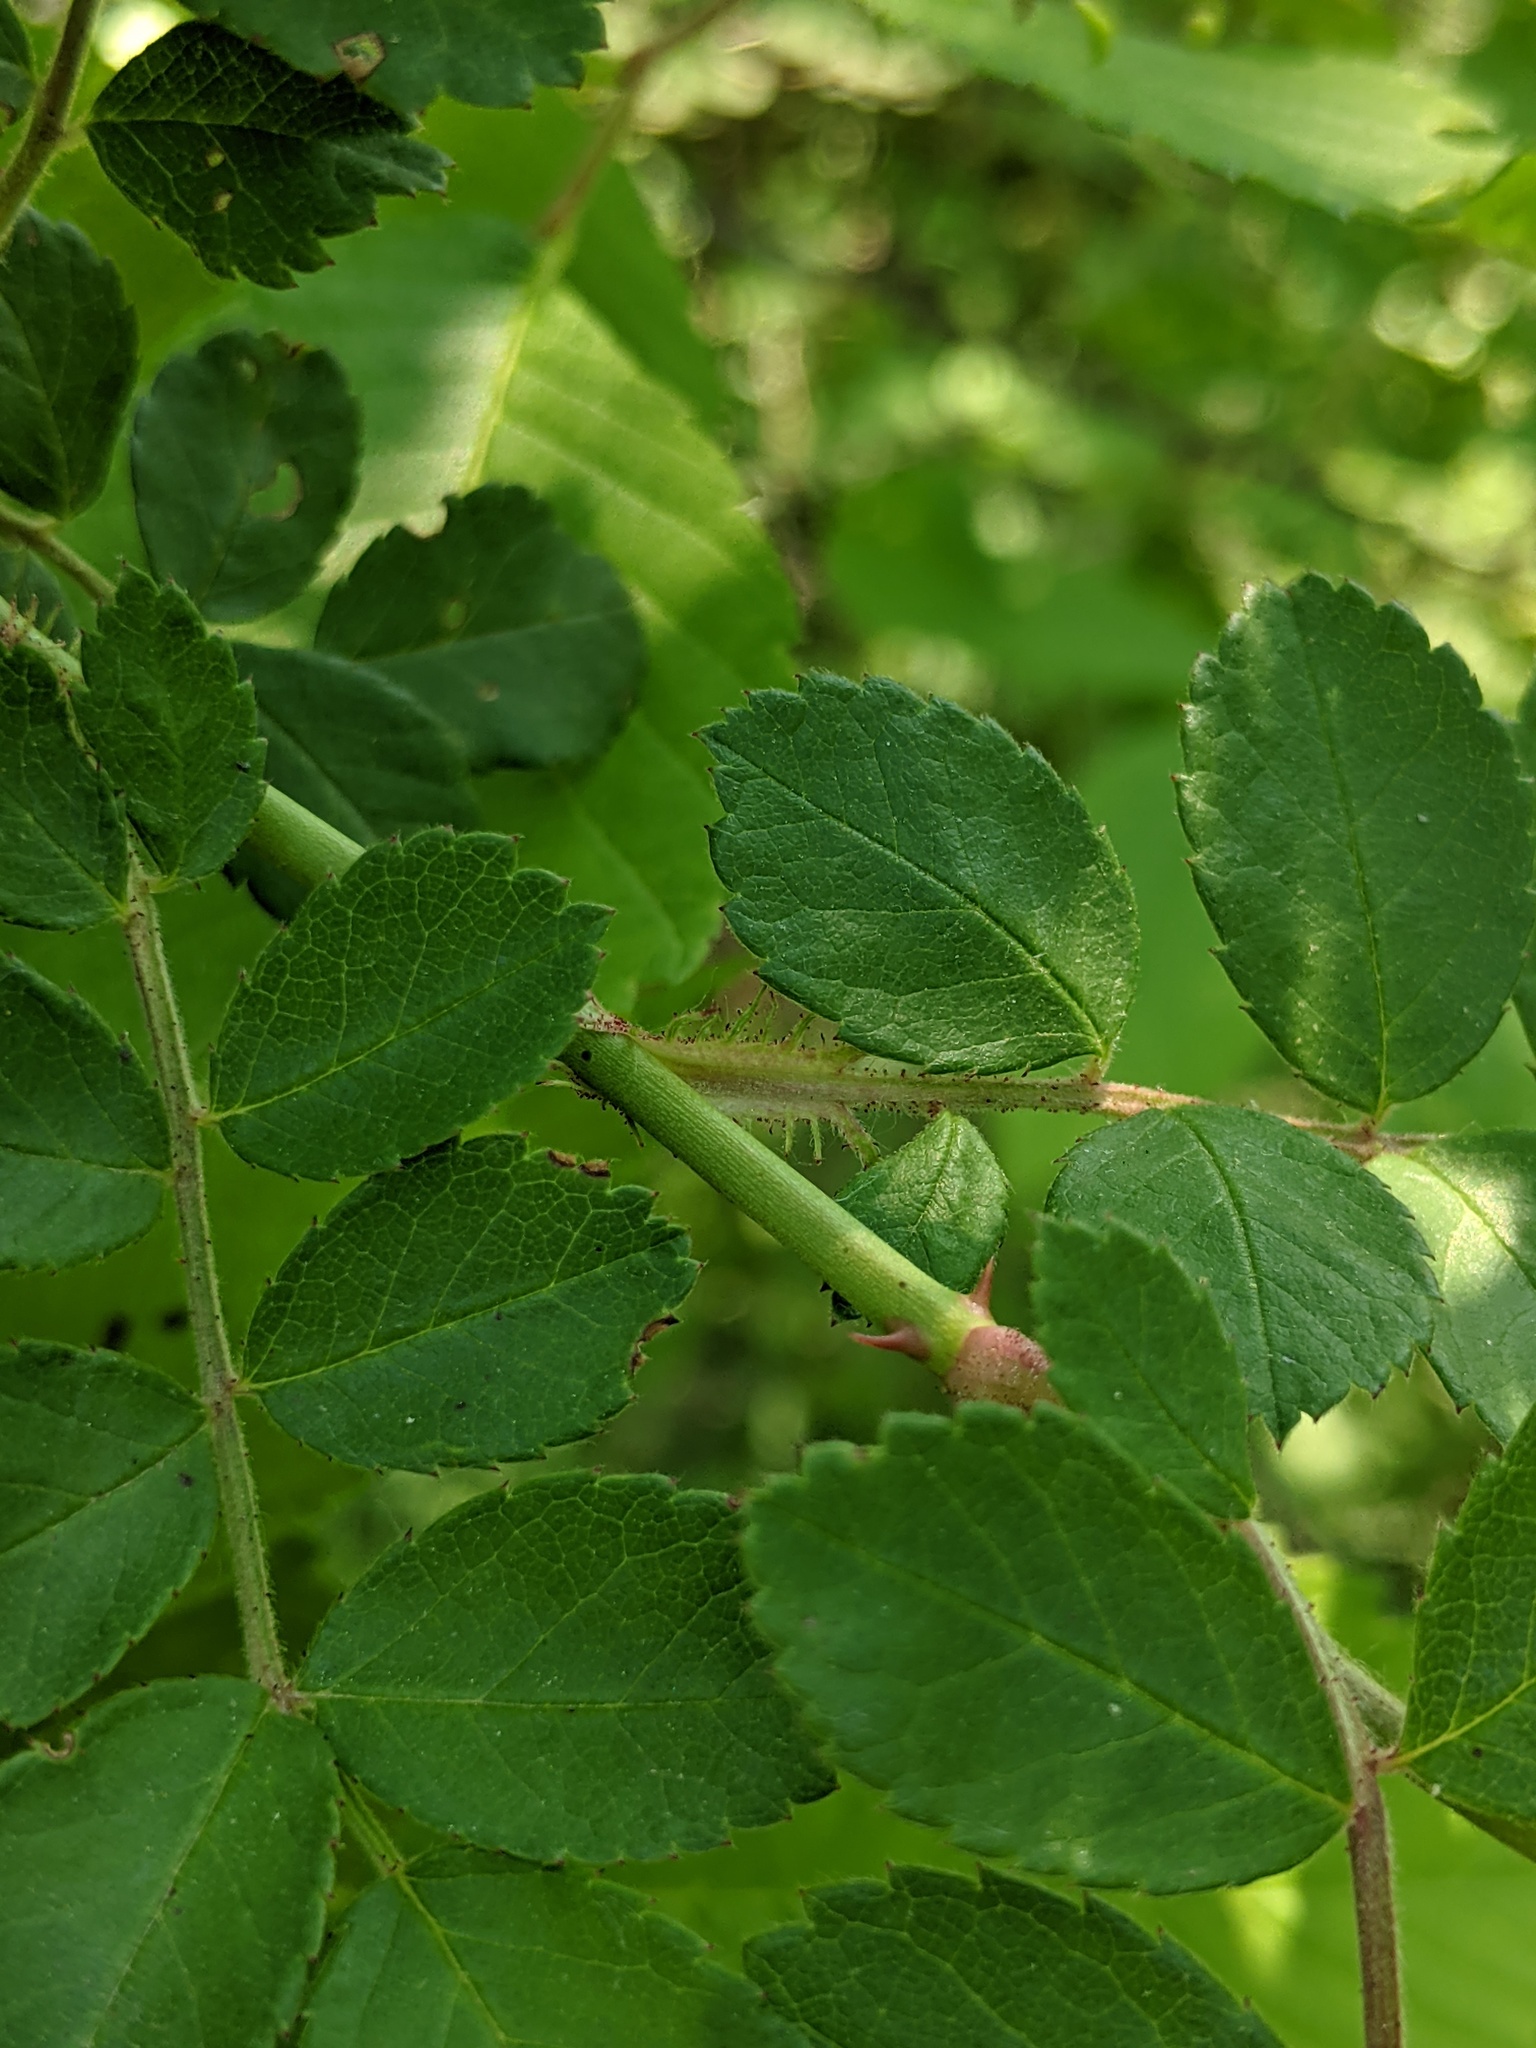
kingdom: Plantae
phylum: Tracheophyta
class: Magnoliopsida
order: Rosales
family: Rosaceae
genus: Rosa
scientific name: Rosa multiflora
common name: Multiflora rose
